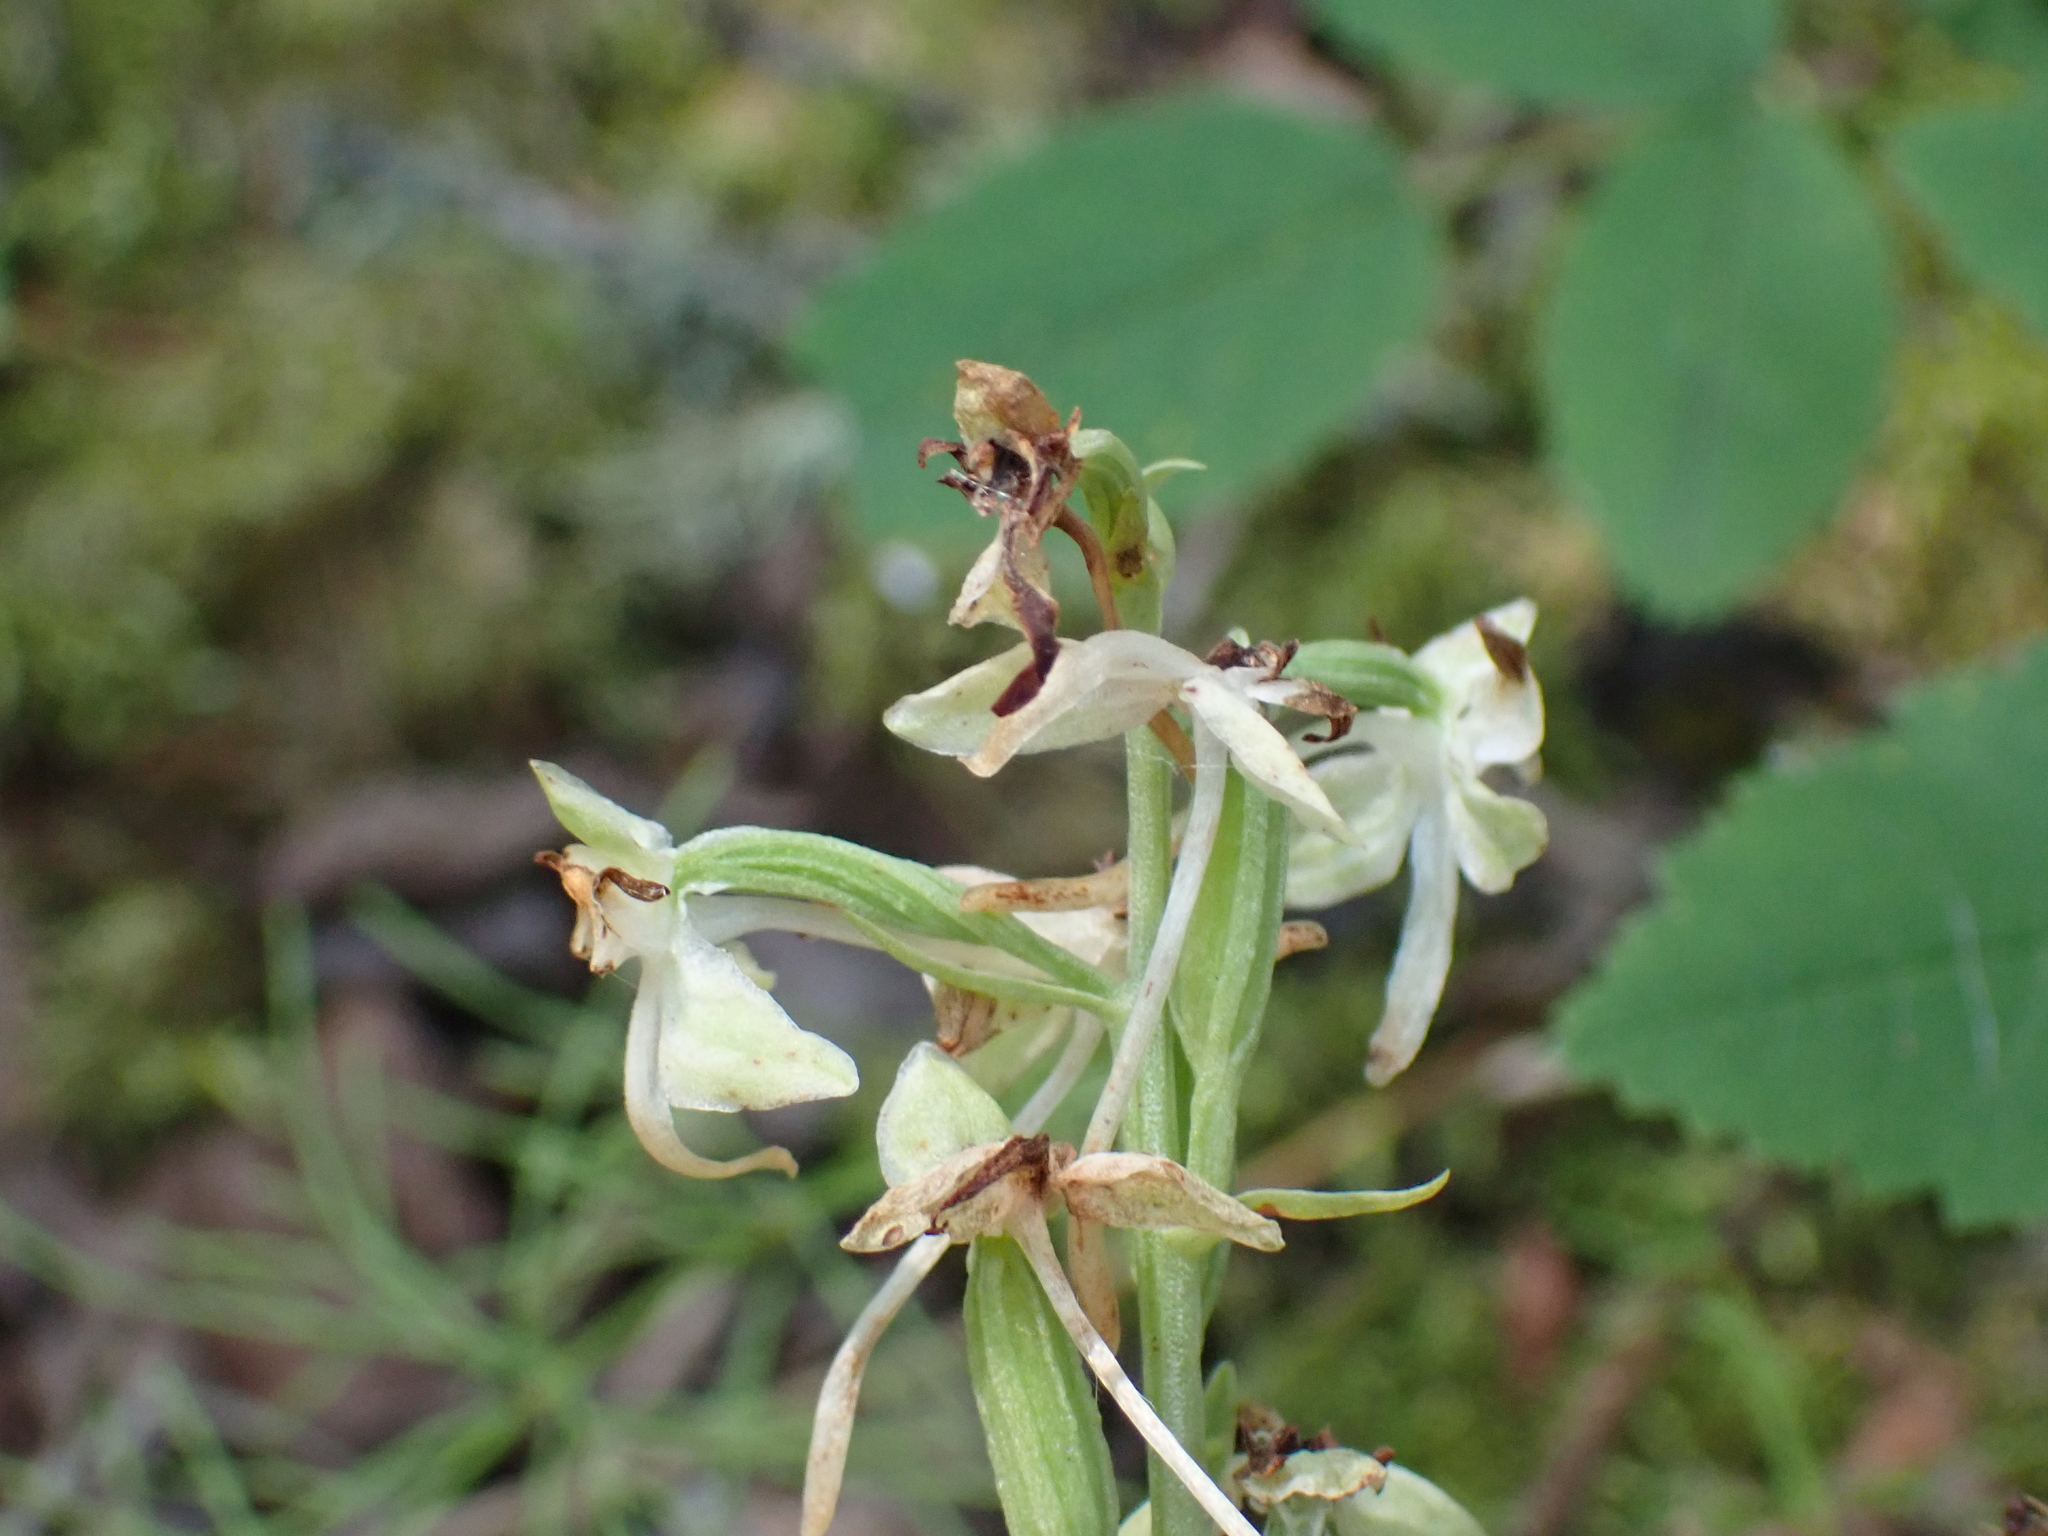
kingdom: Plantae
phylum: Tracheophyta
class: Liliopsida
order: Asparagales
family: Orchidaceae
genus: Platanthera
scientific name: Platanthera orbiculata
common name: Large round-leaved orchid
